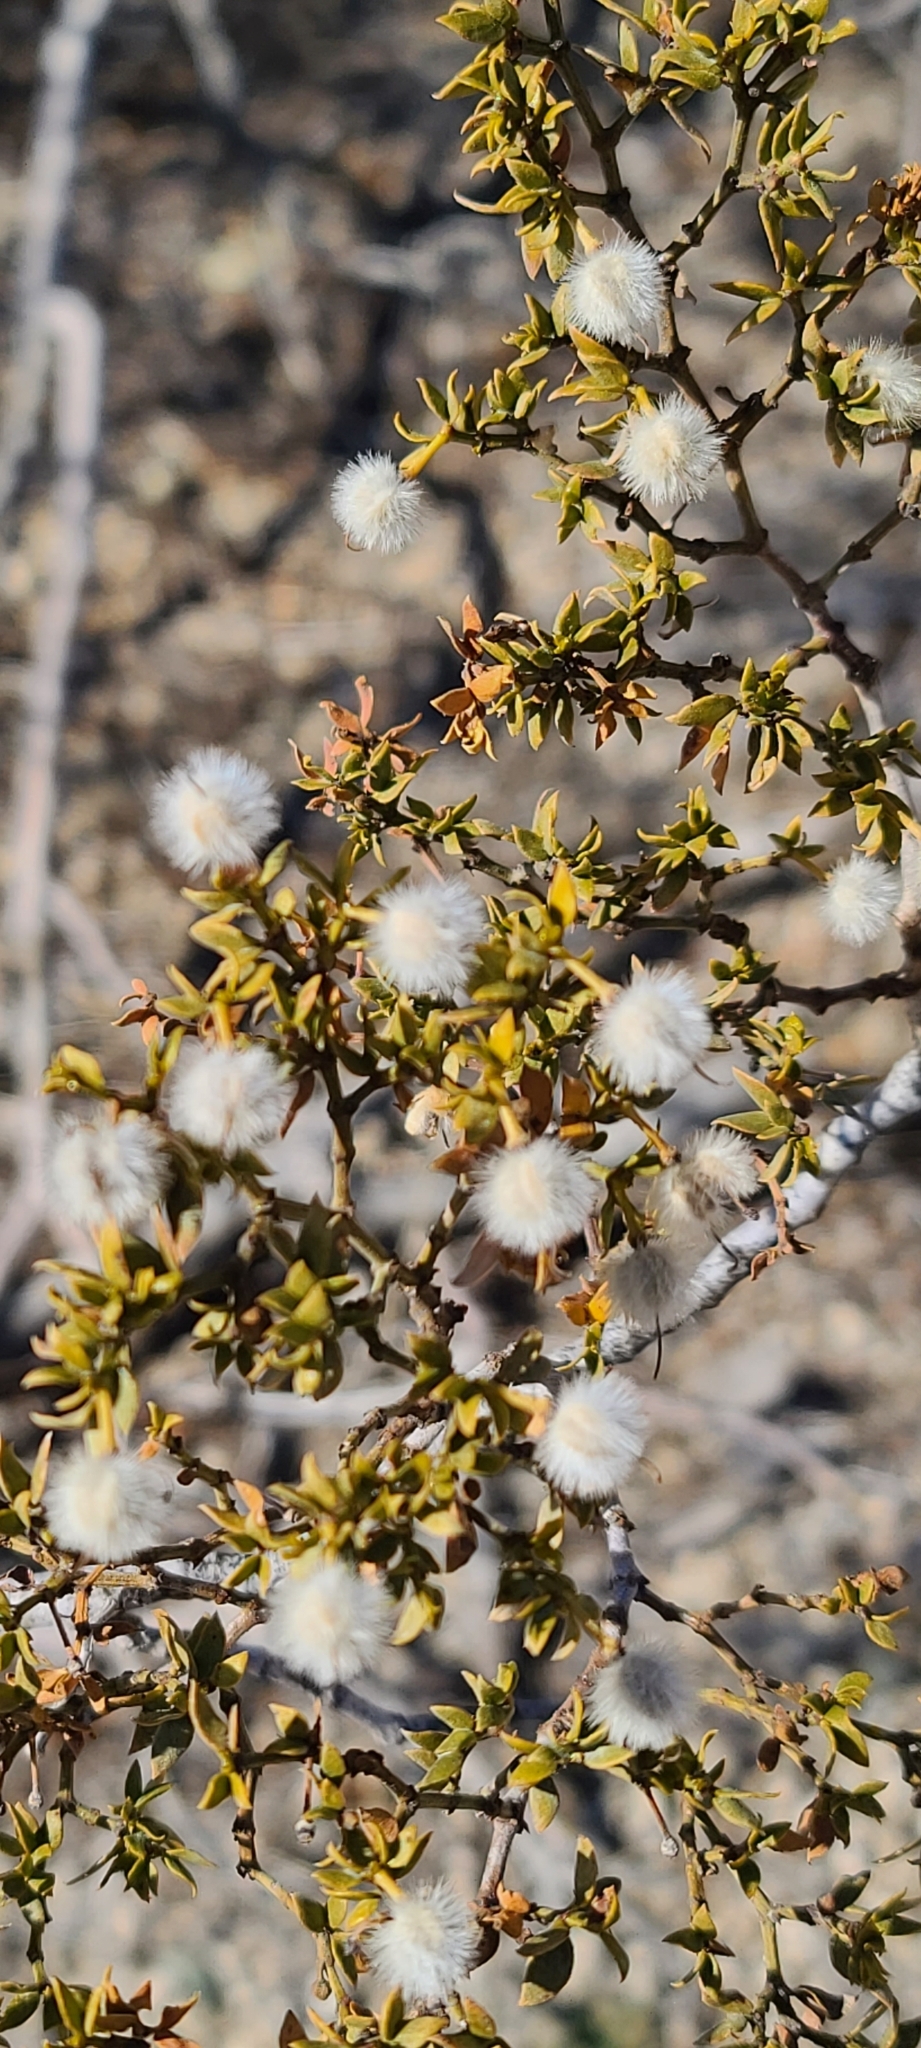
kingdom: Plantae
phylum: Tracheophyta
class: Magnoliopsida
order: Zygophyllales
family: Zygophyllaceae
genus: Larrea
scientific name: Larrea tridentata
